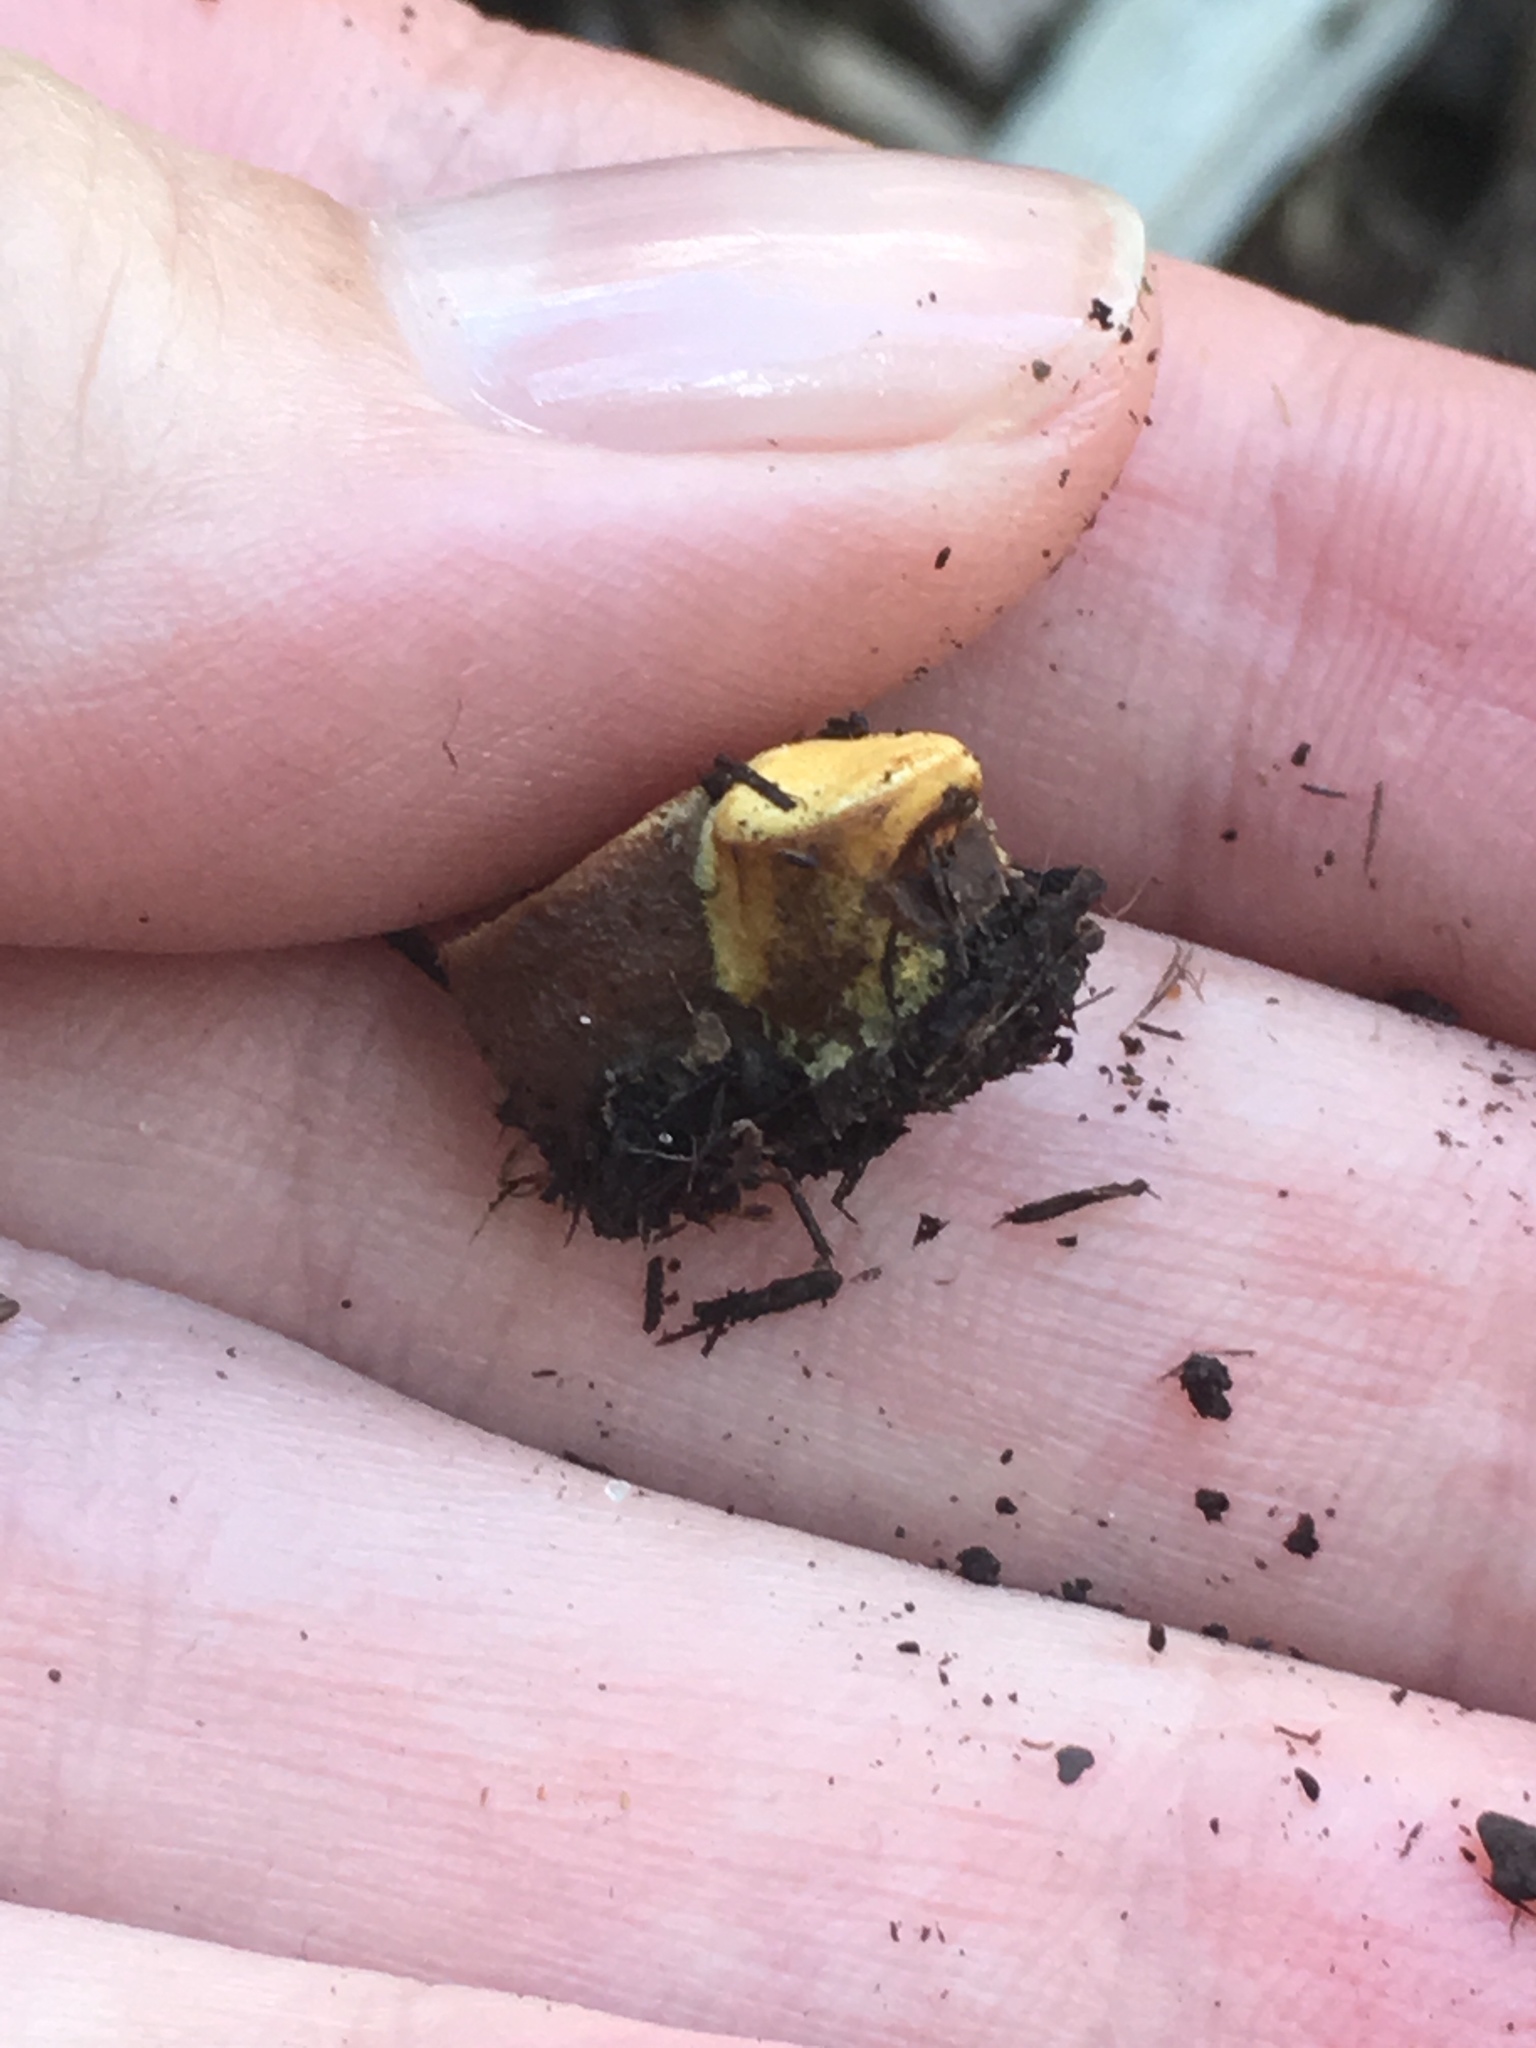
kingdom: Fungi
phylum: Basidiomycota
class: Agaricomycetes
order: Agaricales
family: Nidulariaceae
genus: Crucibulum
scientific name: Crucibulum laeve
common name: Common bird's nest
